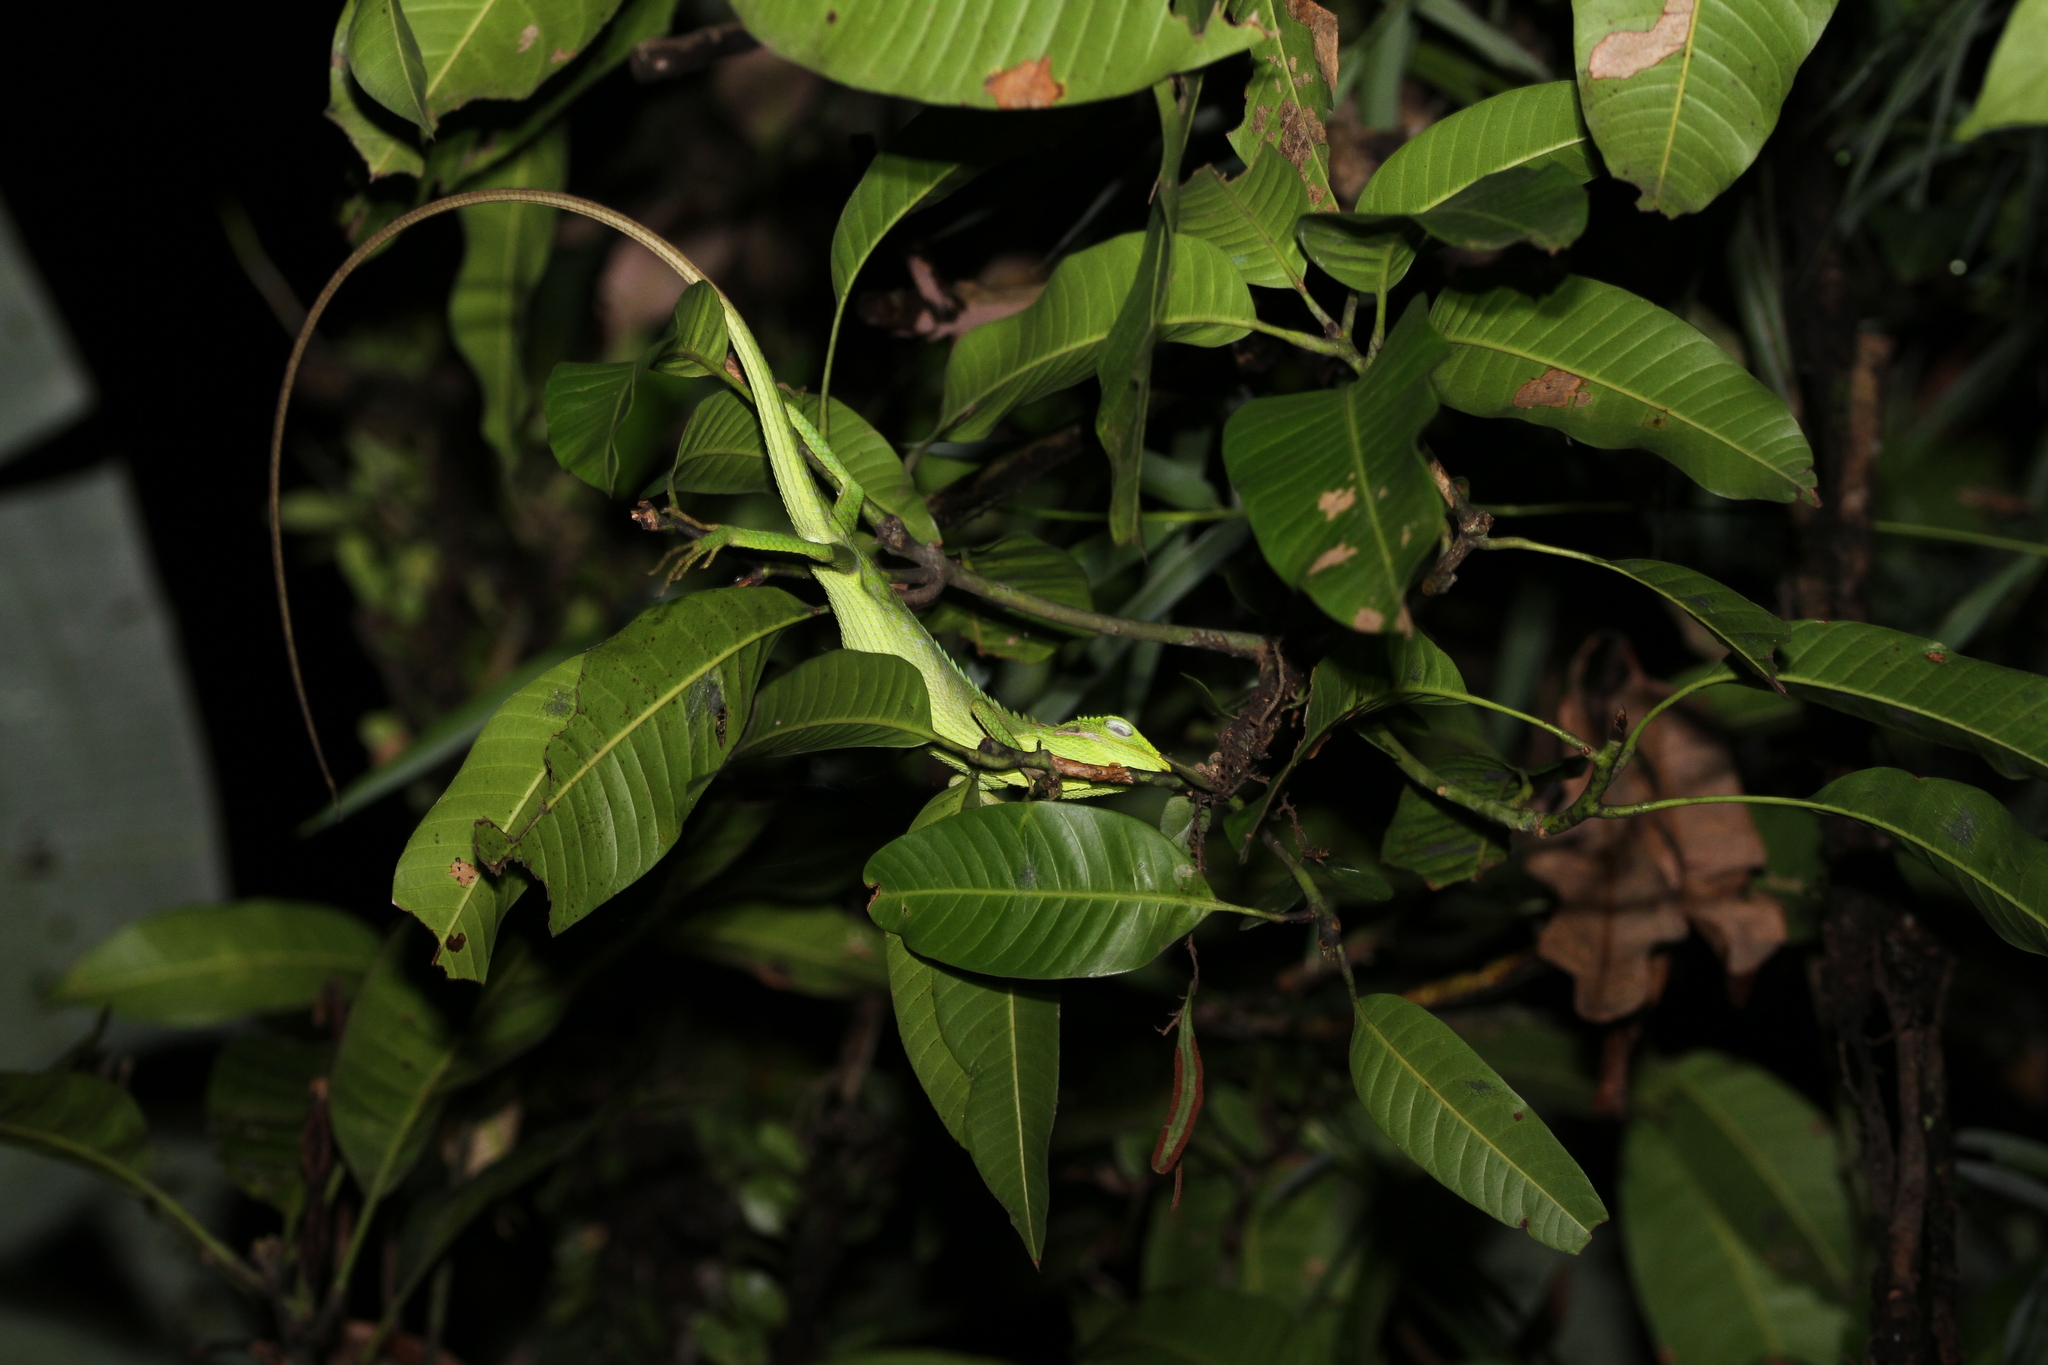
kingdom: Animalia
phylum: Chordata
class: Squamata
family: Agamidae
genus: Bronchocela
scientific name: Bronchocela jubata
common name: Maned forest lizard
